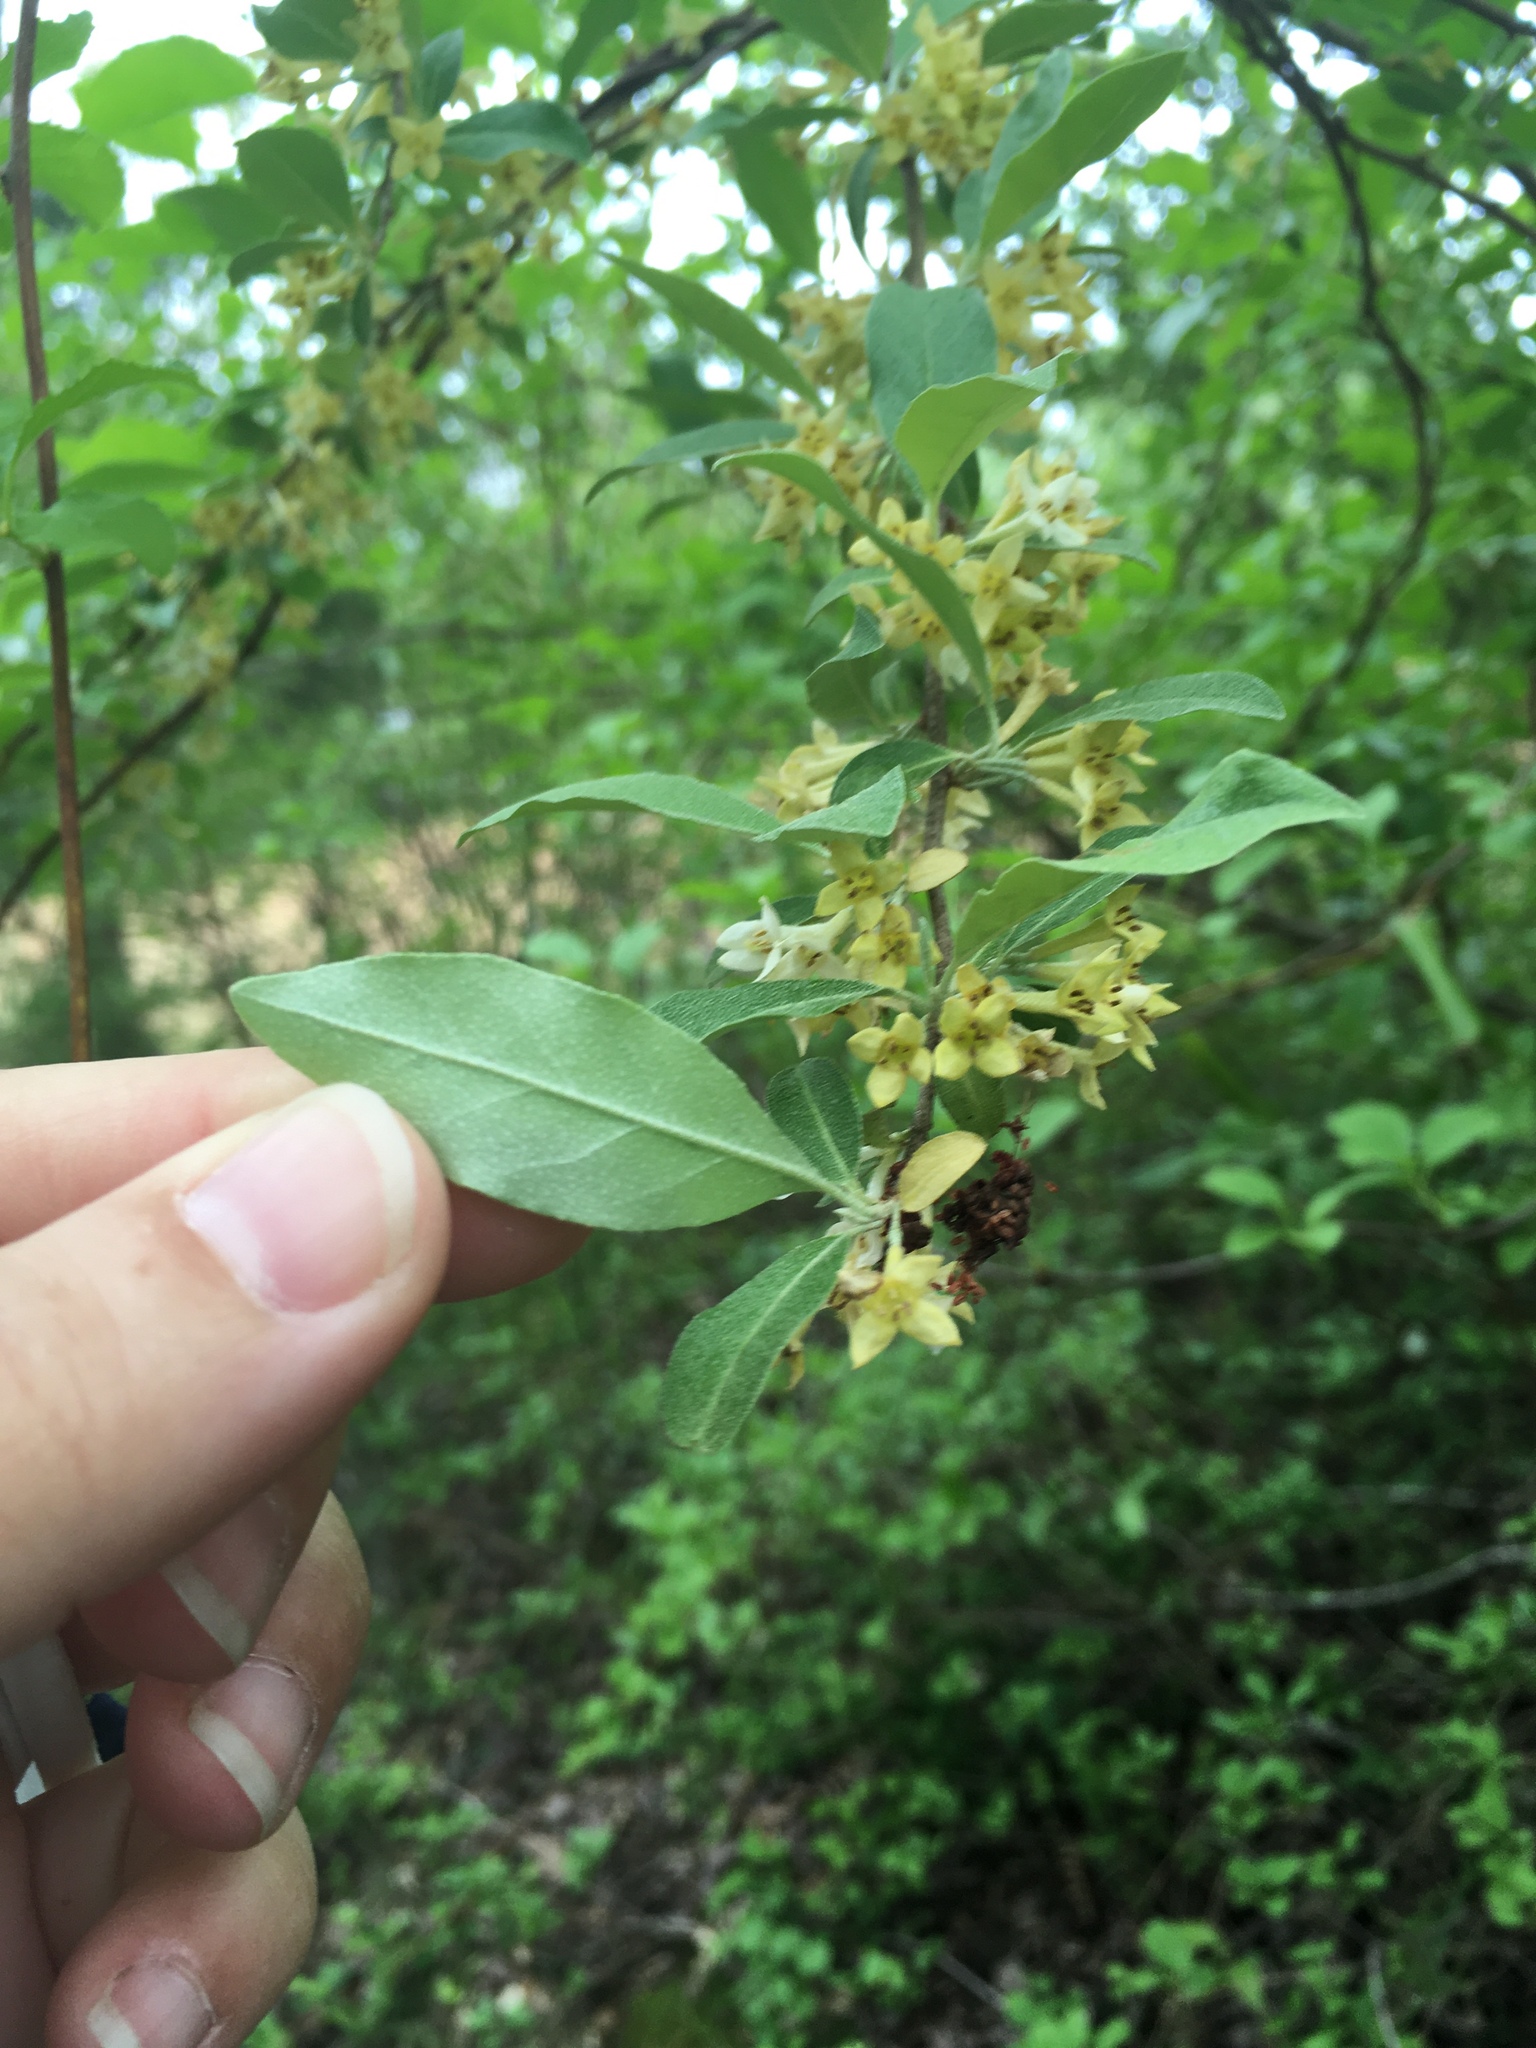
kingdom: Plantae
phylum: Tracheophyta
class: Magnoliopsida
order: Rosales
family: Elaeagnaceae
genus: Elaeagnus
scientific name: Elaeagnus umbellata
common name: Autumn olive
